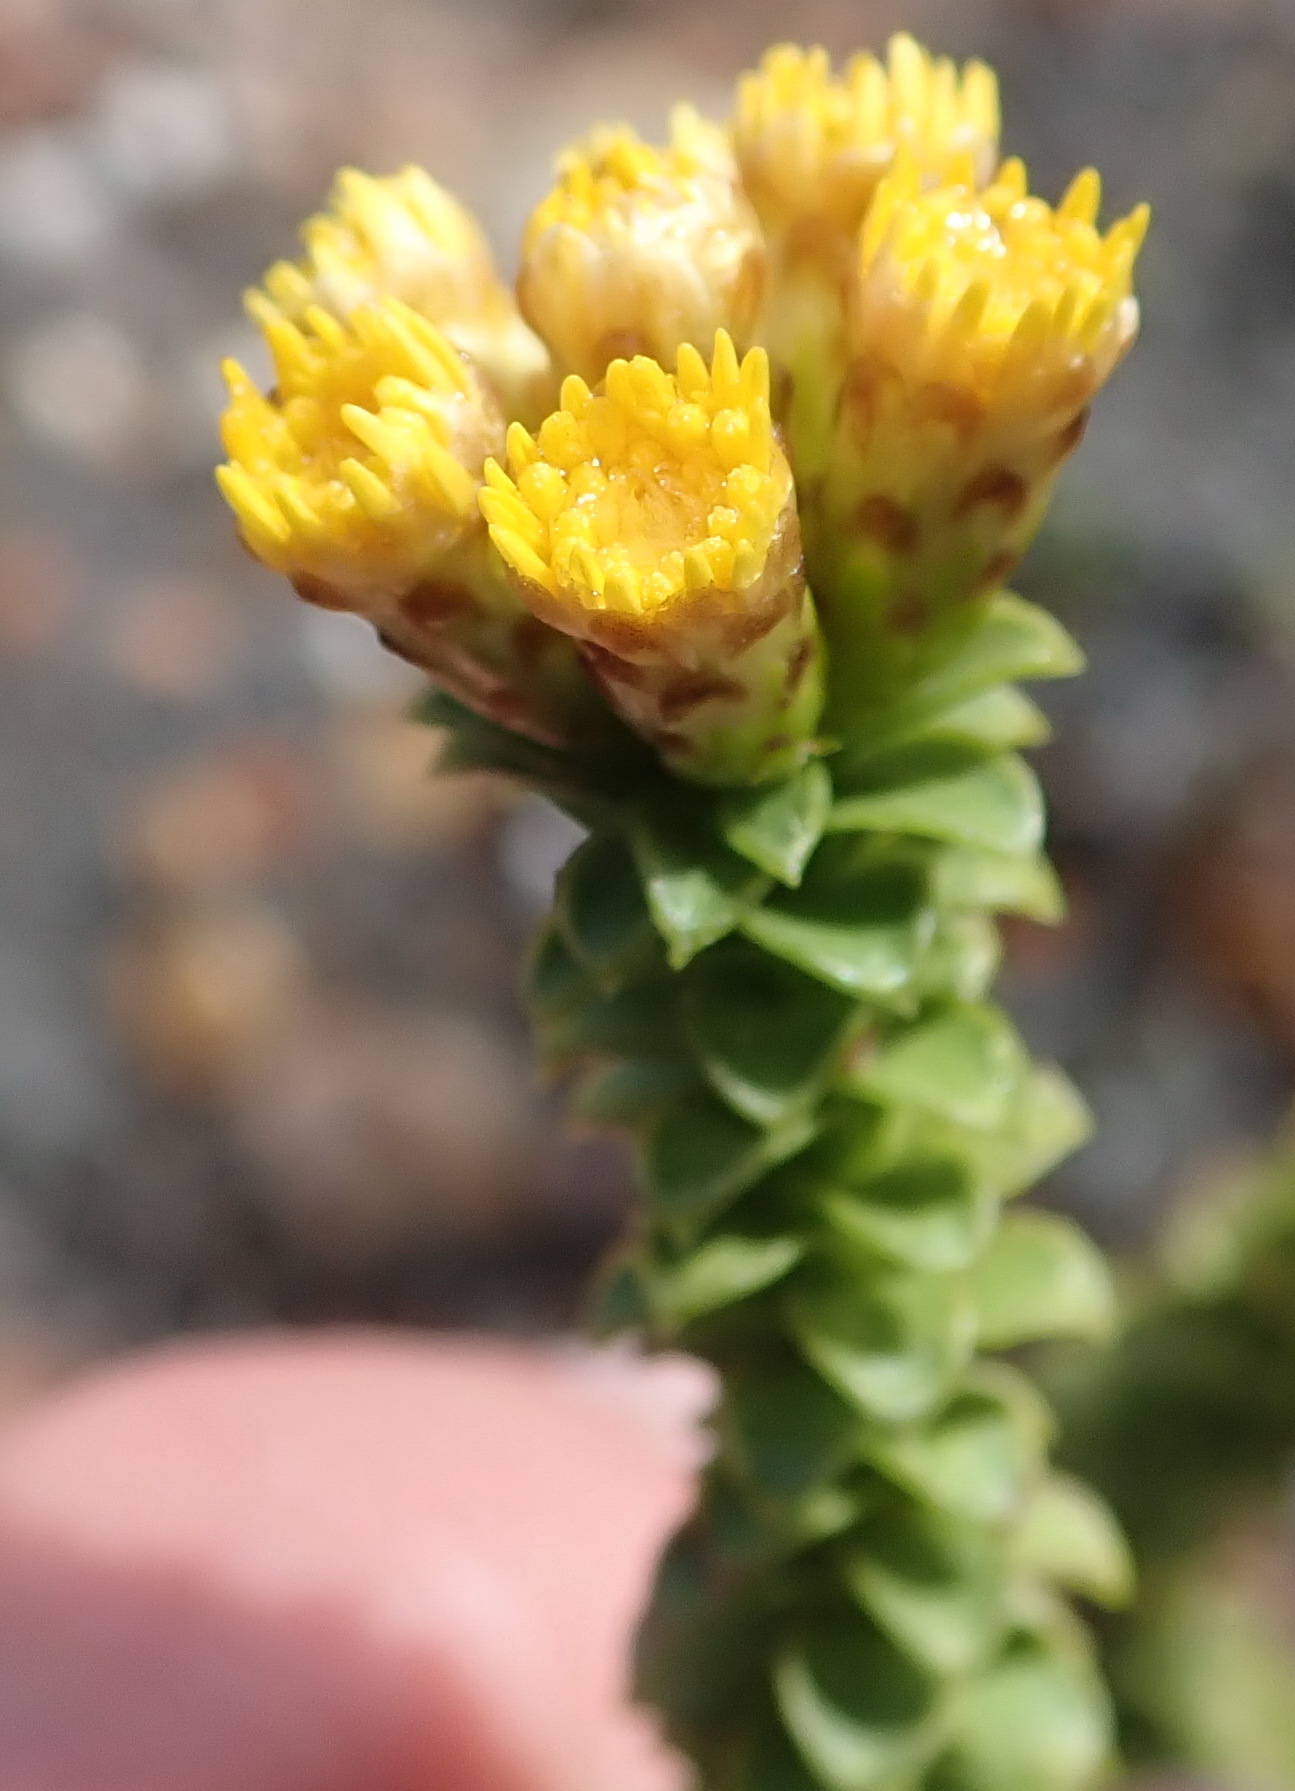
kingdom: Plantae
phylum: Tracheophyta
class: Magnoliopsida
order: Asterales
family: Asteraceae
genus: Oedera
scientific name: Oedera squarrosa
